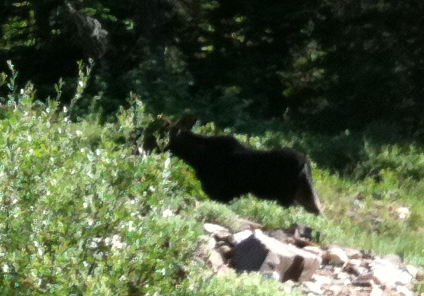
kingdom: Animalia
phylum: Chordata
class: Mammalia
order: Artiodactyla
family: Cervidae
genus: Alces
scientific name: Alces alces
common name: Moose
